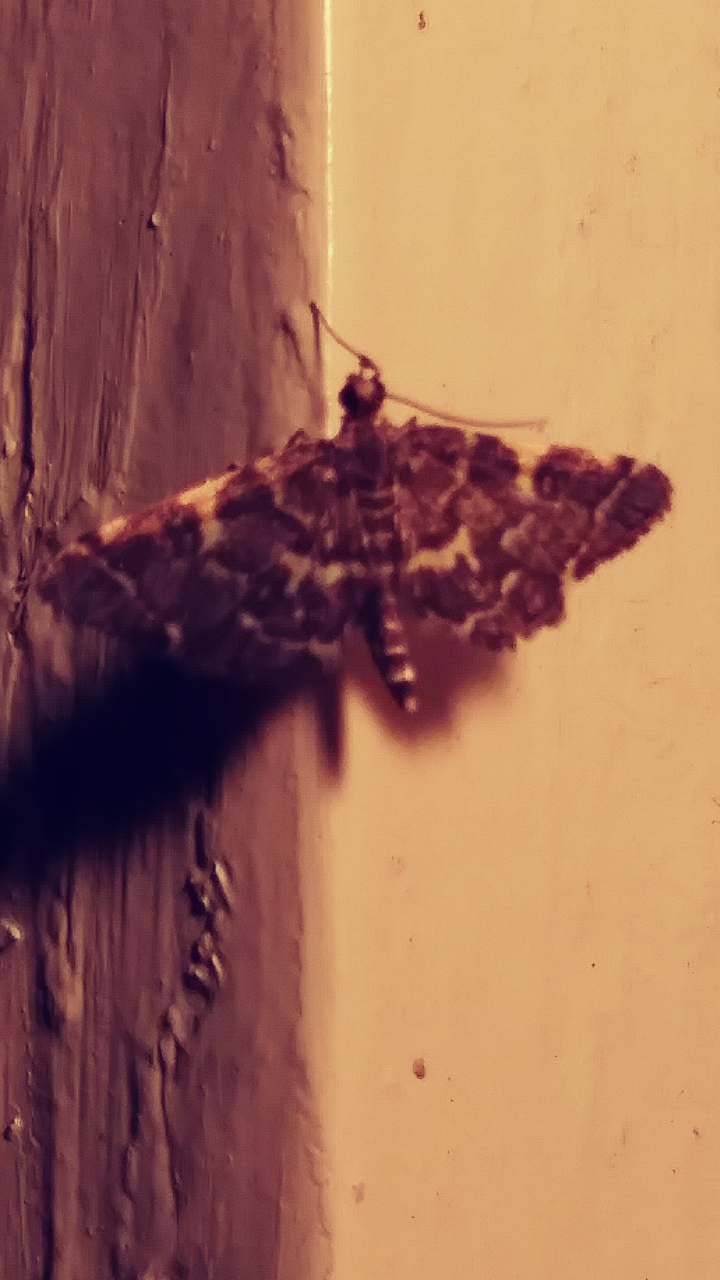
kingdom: Animalia
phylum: Arthropoda
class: Insecta
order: Lepidoptera
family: Crambidae
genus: Anageshna
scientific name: Anageshna primordialis
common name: Yellow-spotted webworm moth
